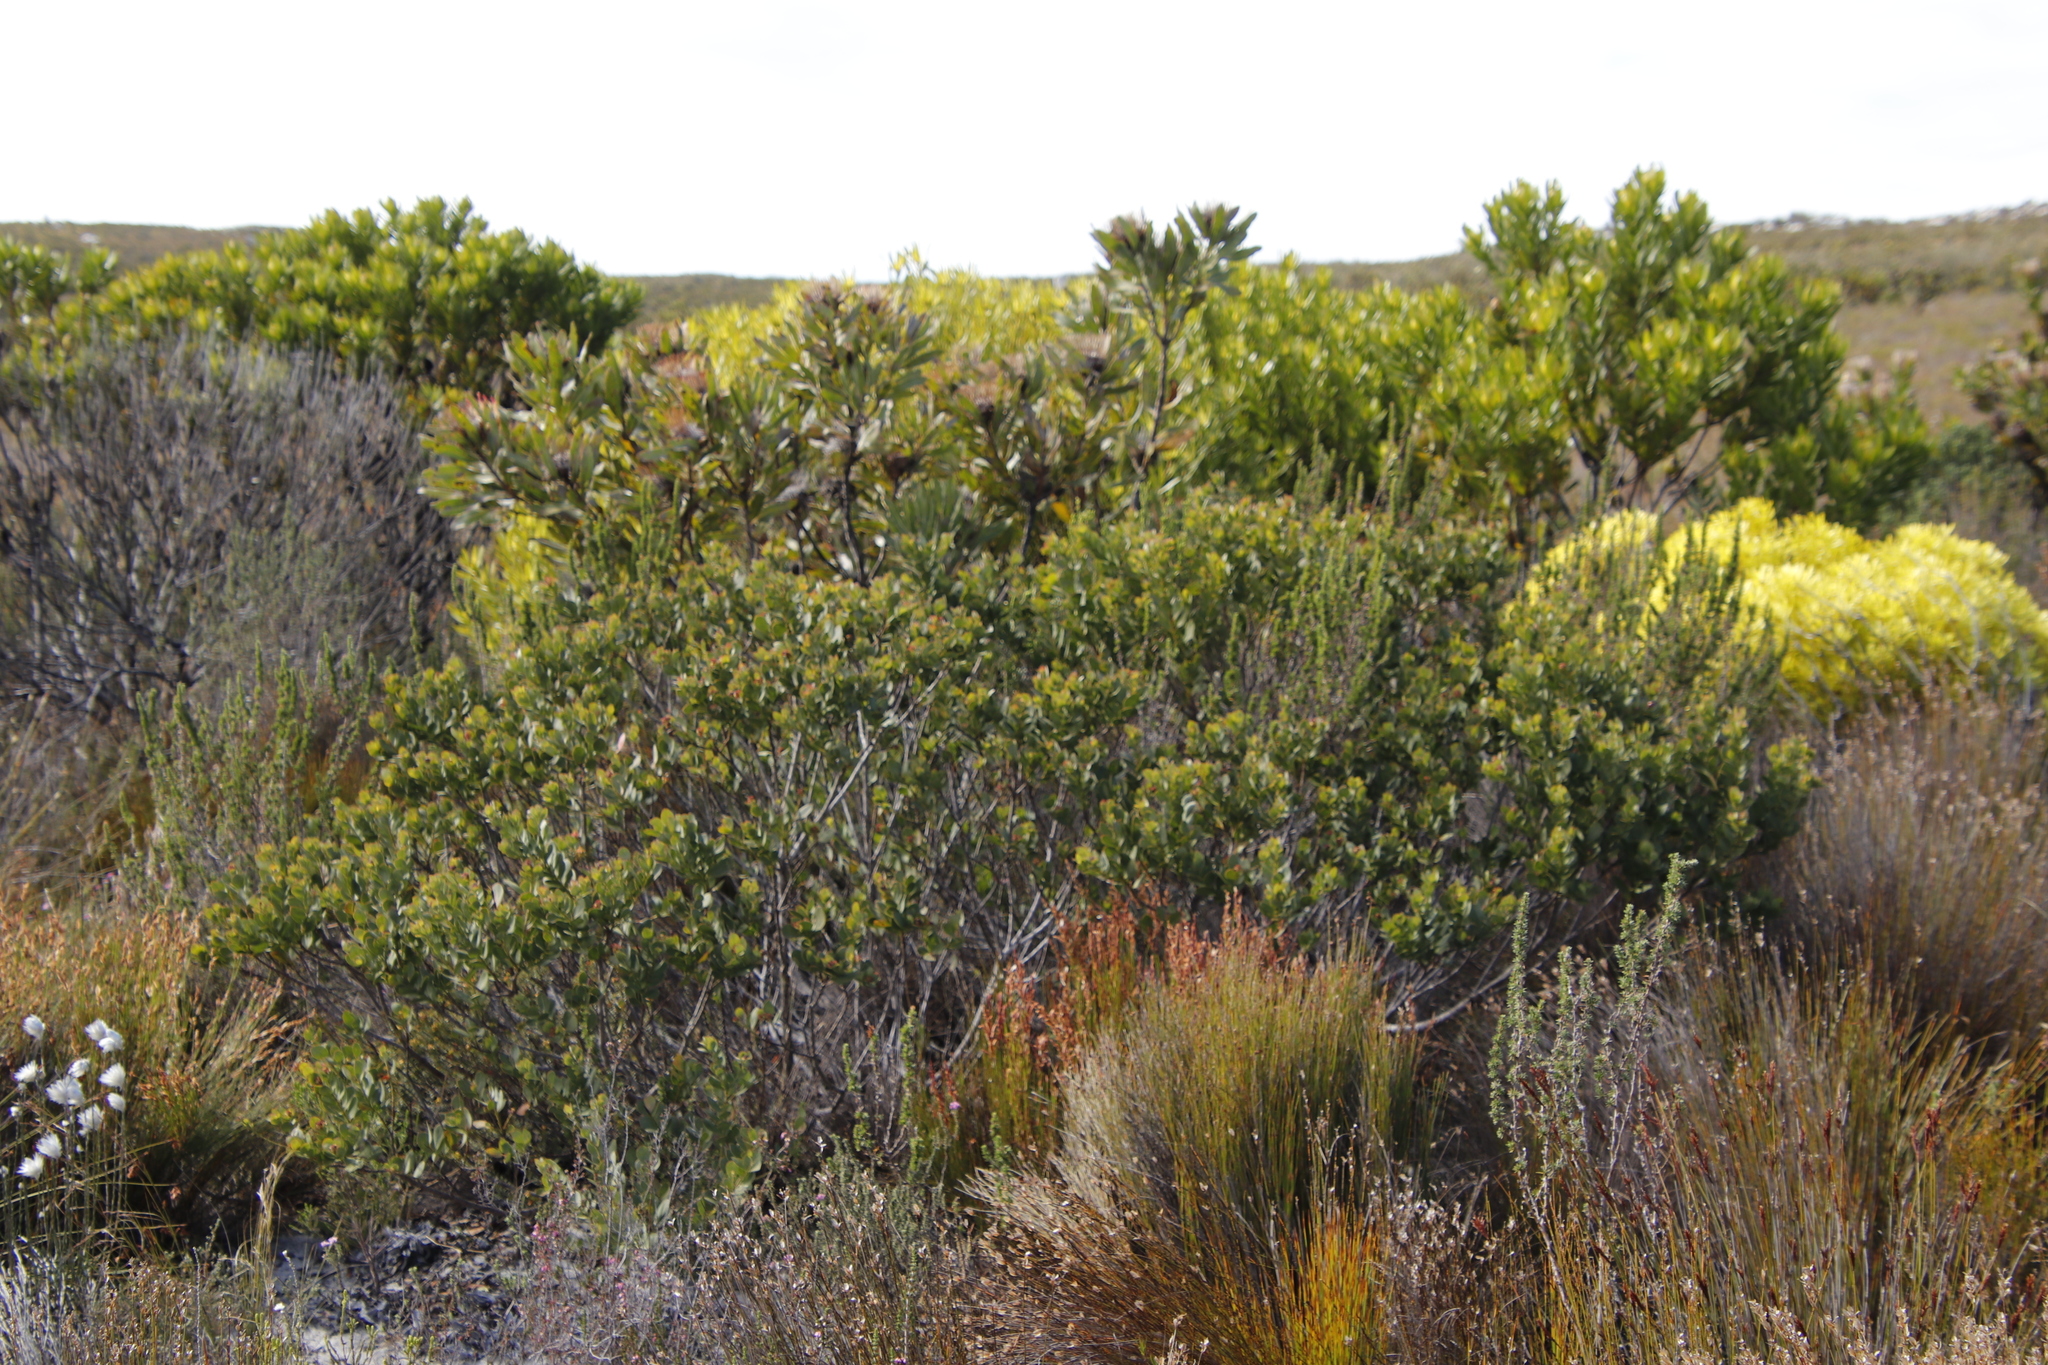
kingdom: Plantae
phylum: Tracheophyta
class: Magnoliopsida
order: Santalales
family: Santalaceae
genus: Osyris
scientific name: Osyris compressa
